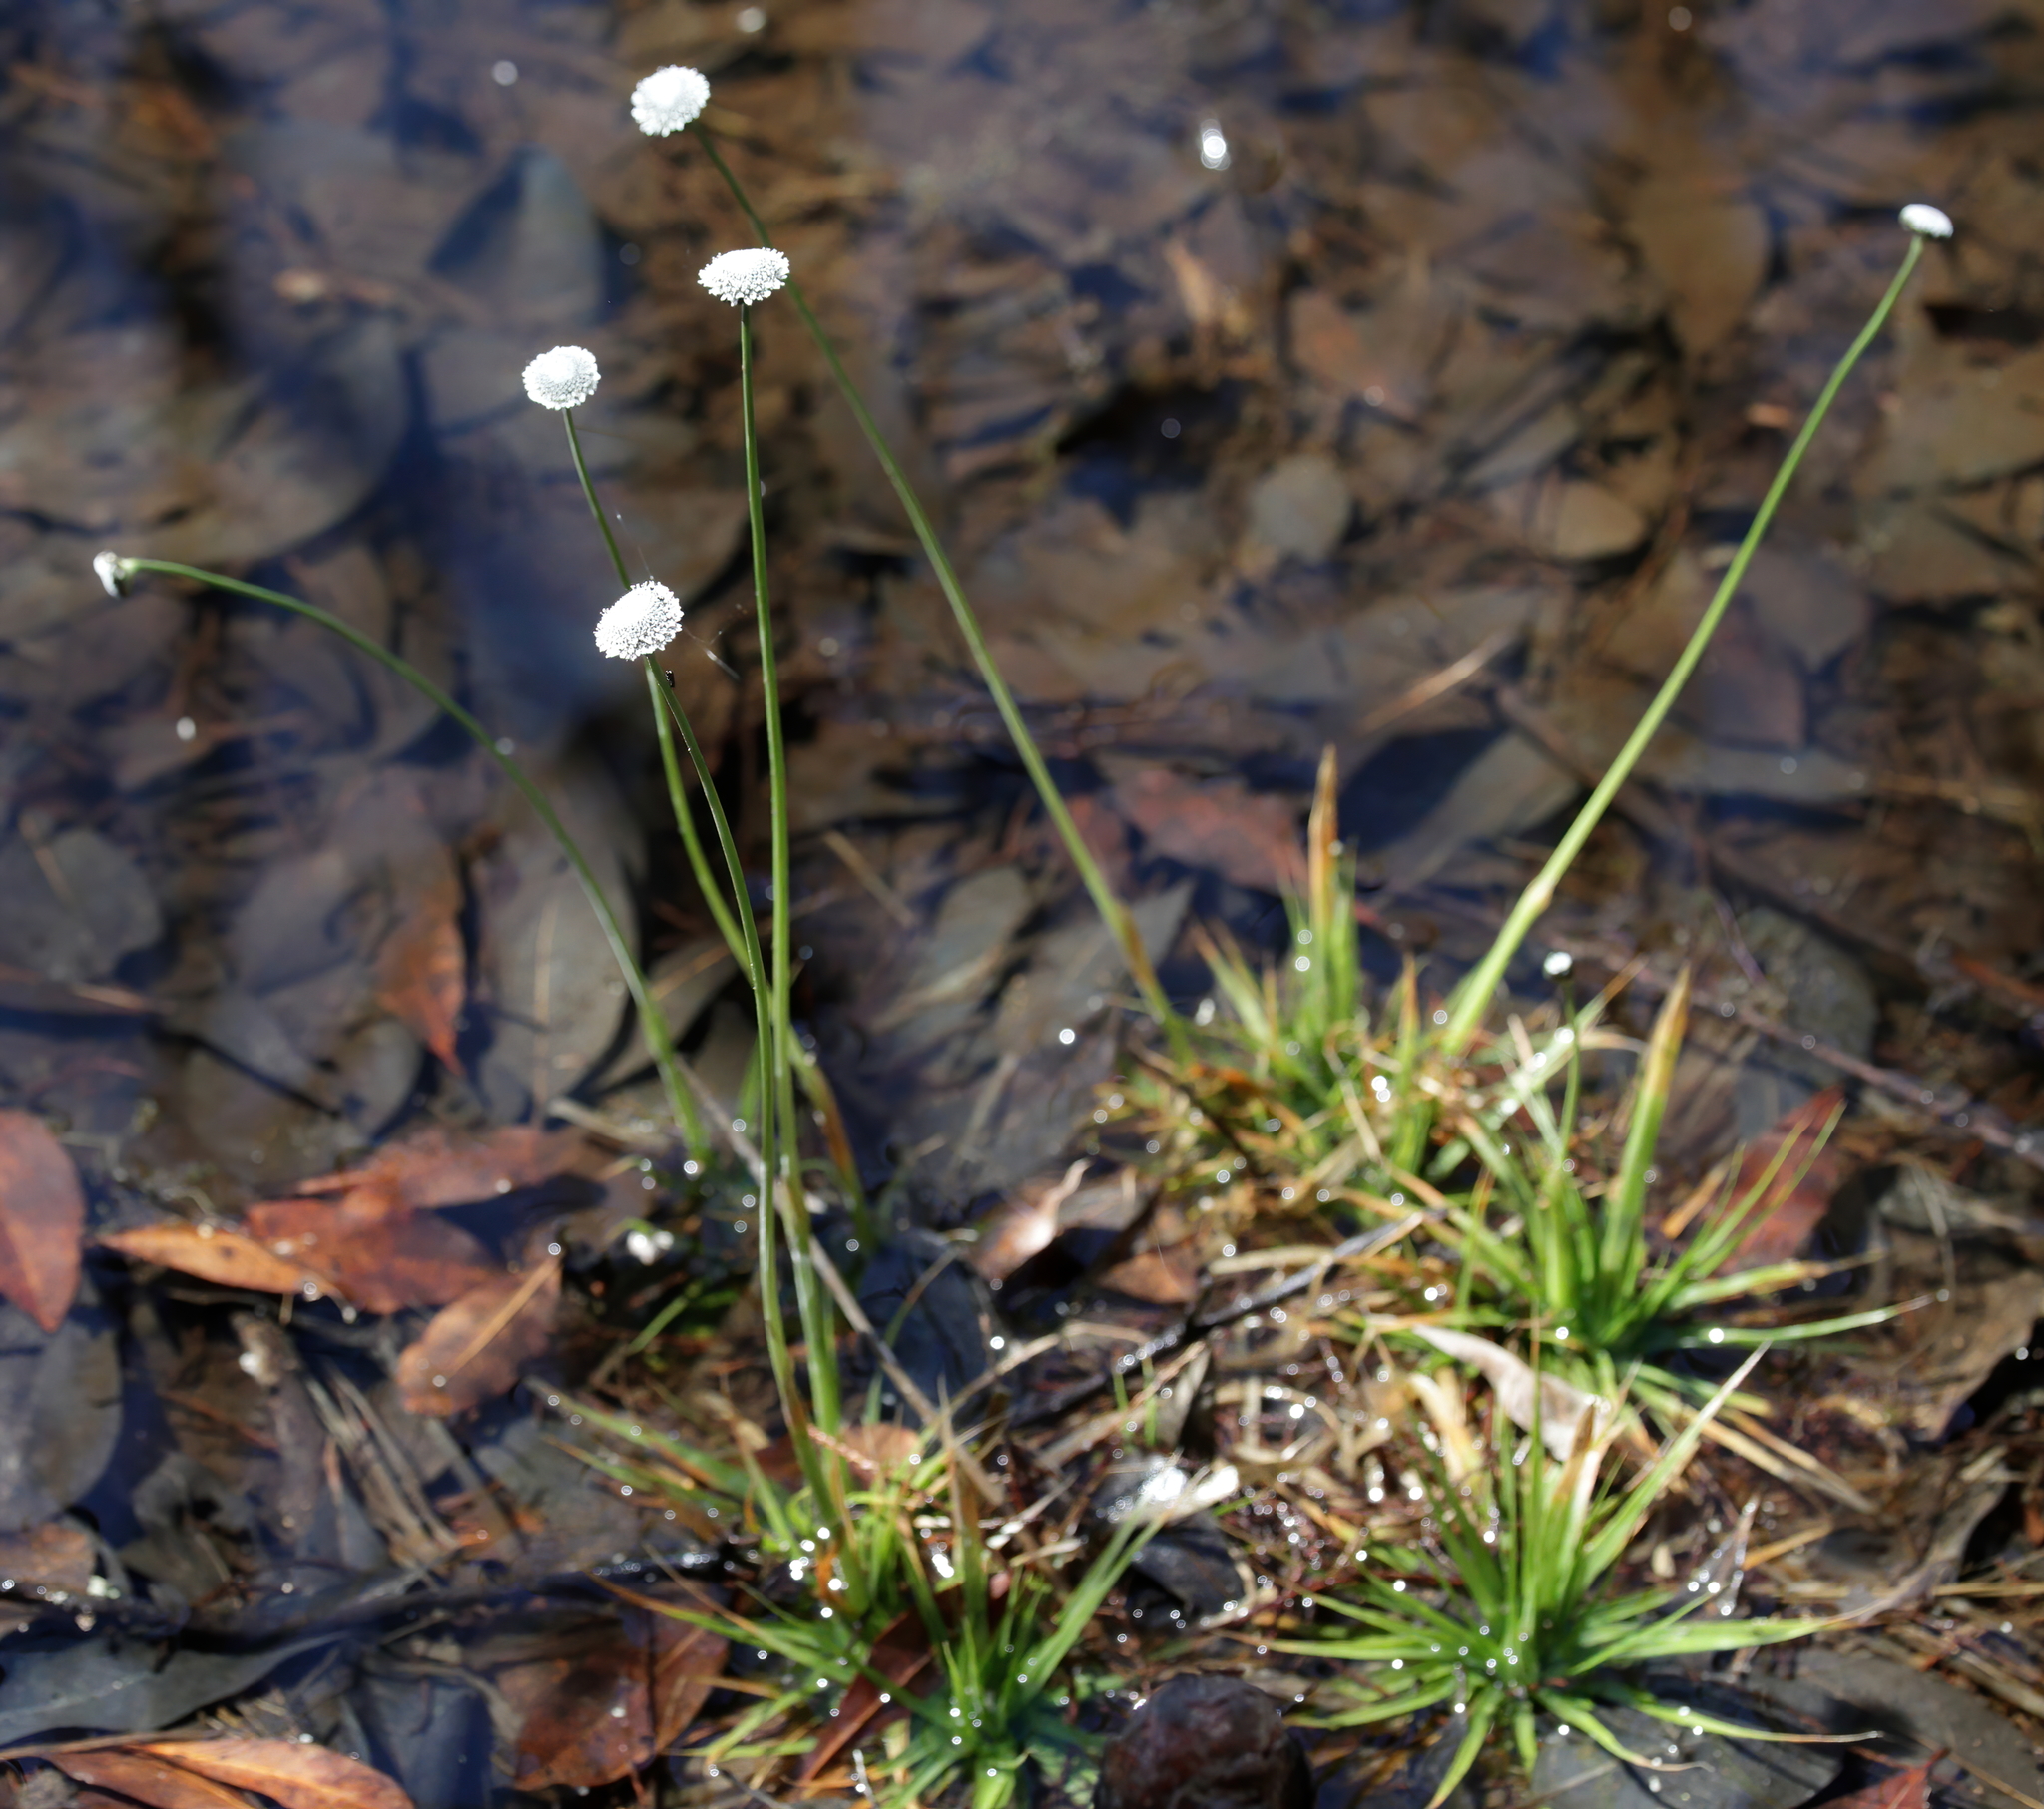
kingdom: Plantae
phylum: Tracheophyta
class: Liliopsida
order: Poales
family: Eriocaulaceae
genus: Eriocaulon
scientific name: Eriocaulon compressum
